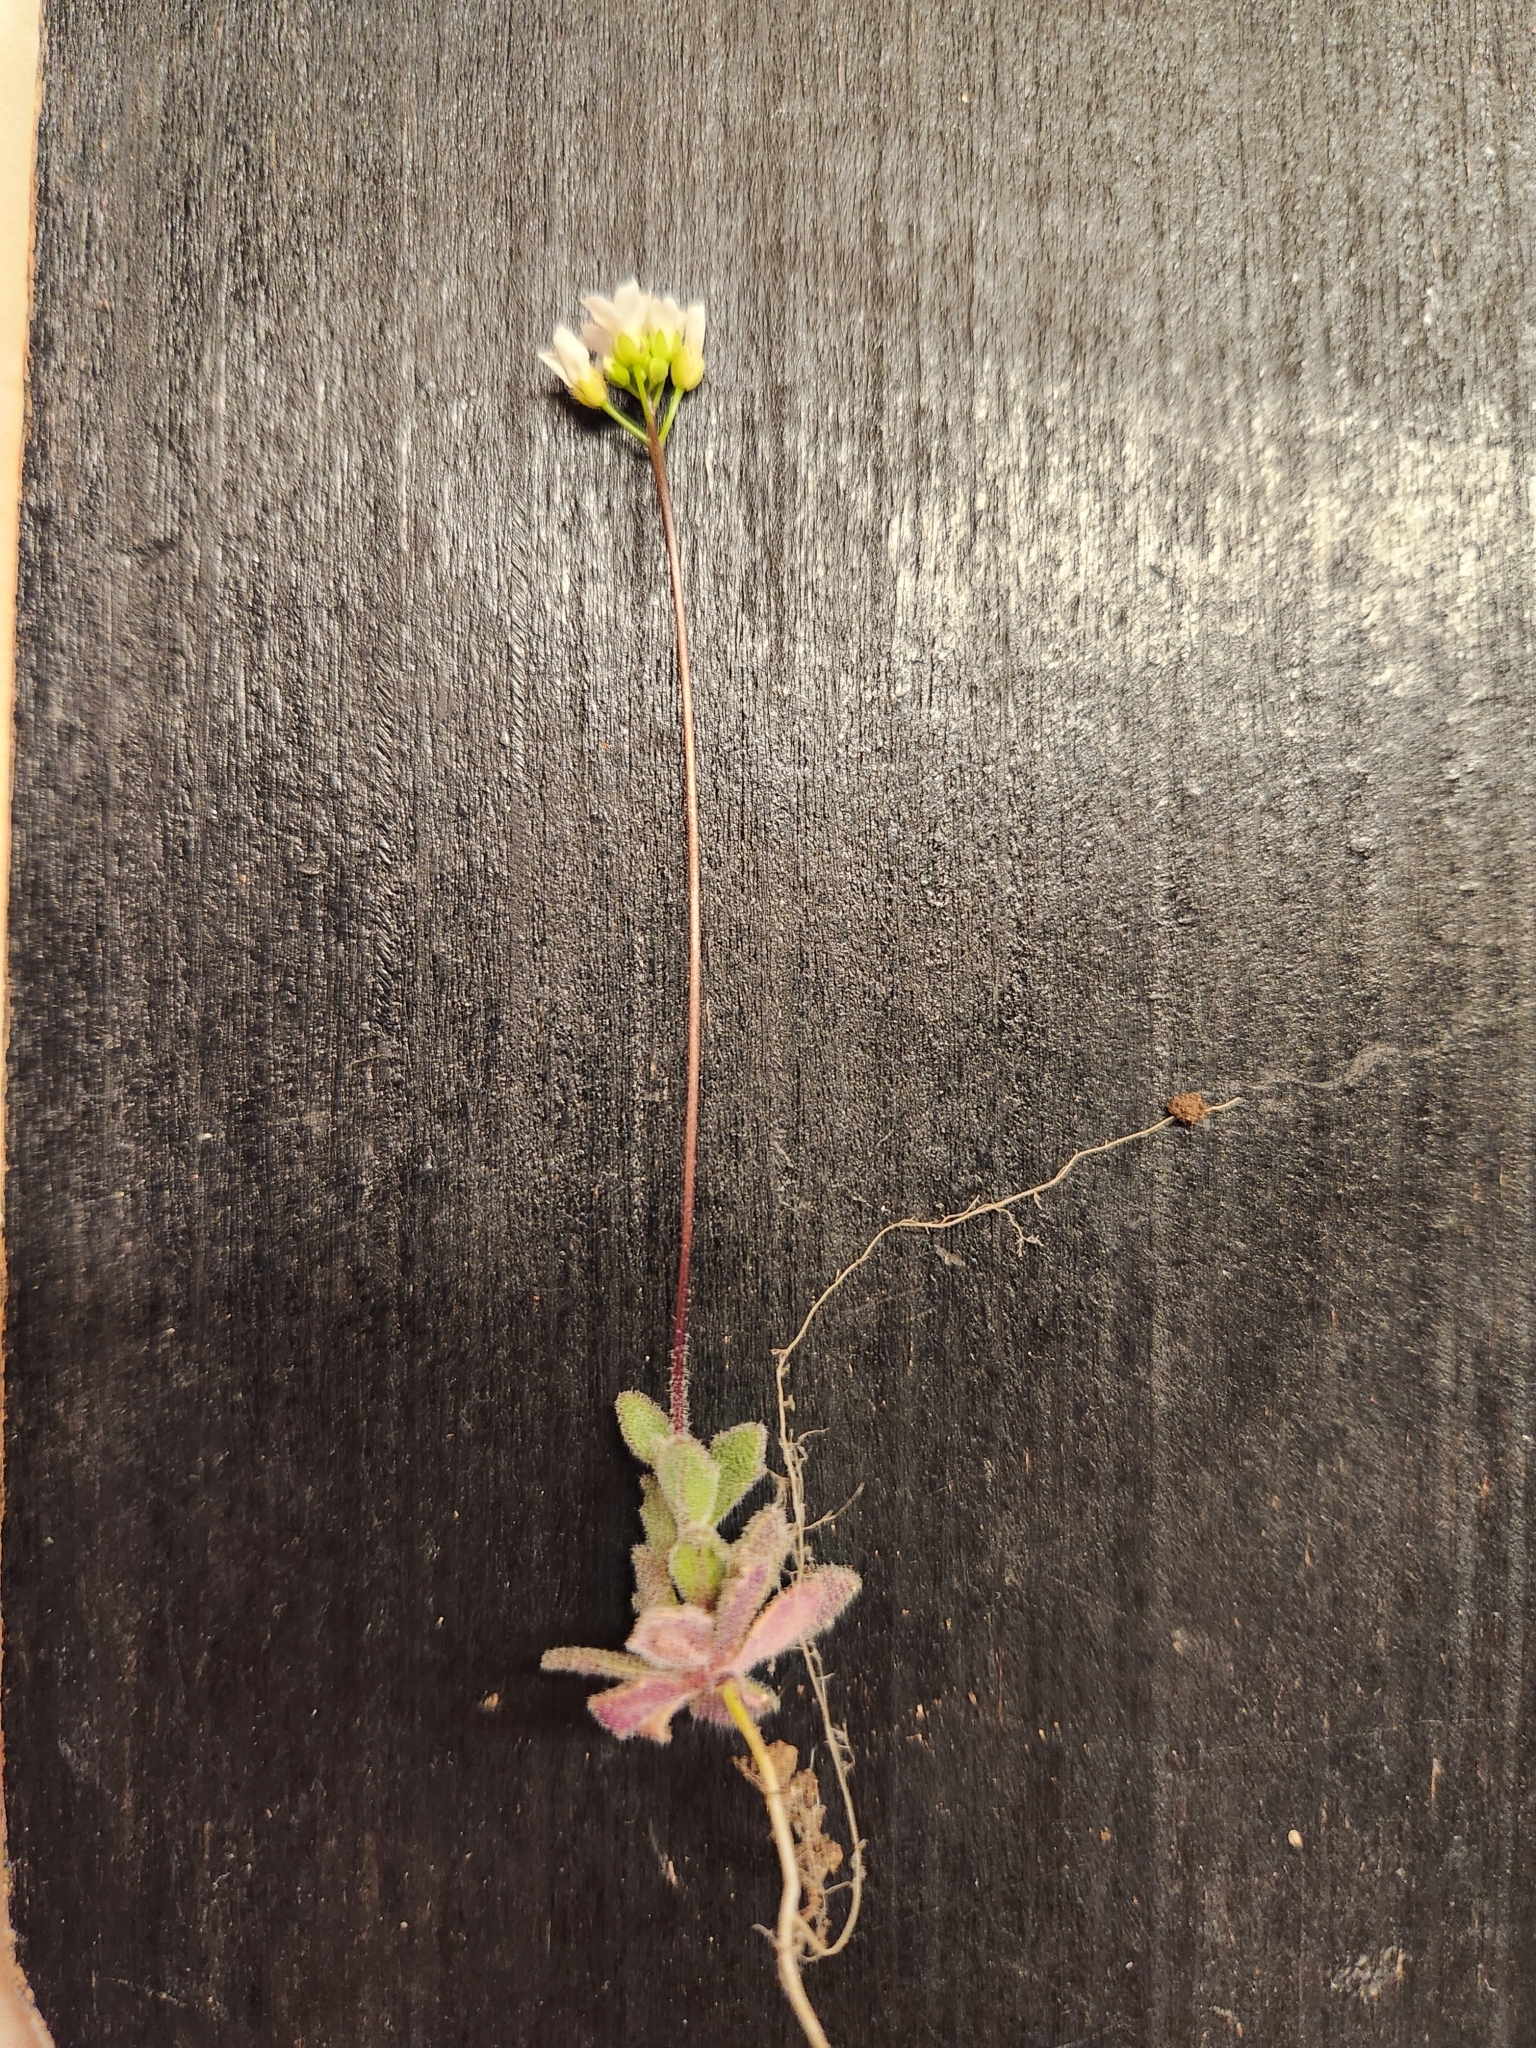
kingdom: Plantae
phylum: Tracheophyta
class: Magnoliopsida
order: Brassicales
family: Brassicaceae
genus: Tomostima
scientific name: Tomostima reptans
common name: Carolina draba
